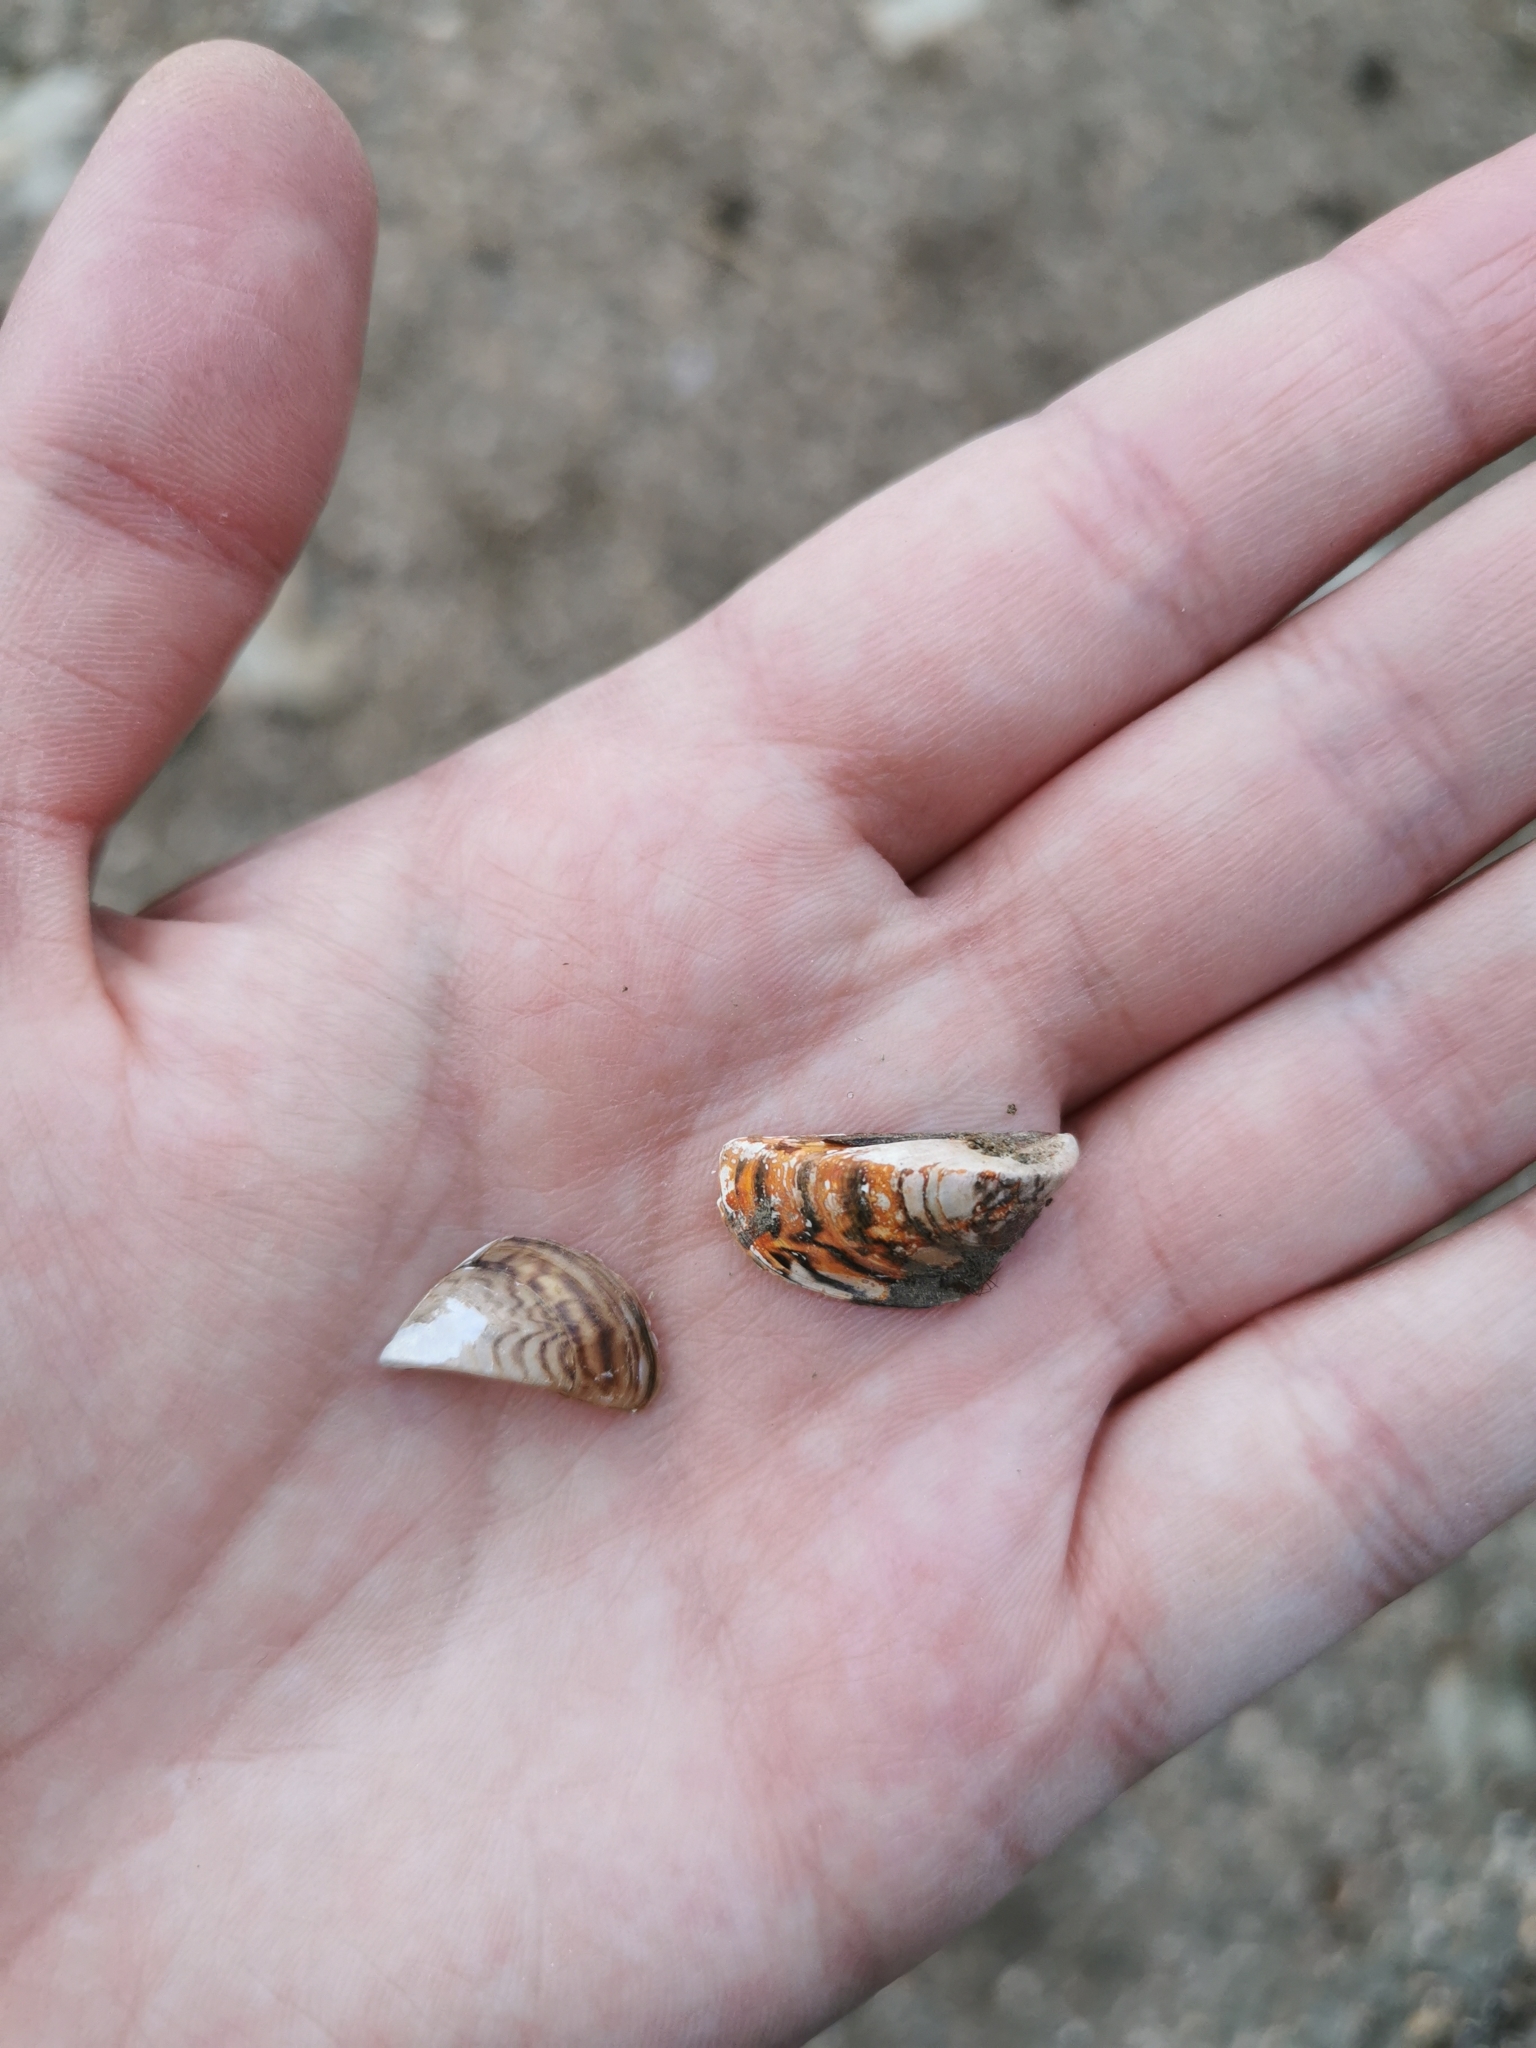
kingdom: Animalia
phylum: Mollusca
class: Bivalvia
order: Myida
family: Dreissenidae
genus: Dreissena
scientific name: Dreissena polymorpha
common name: Zebra mussel
